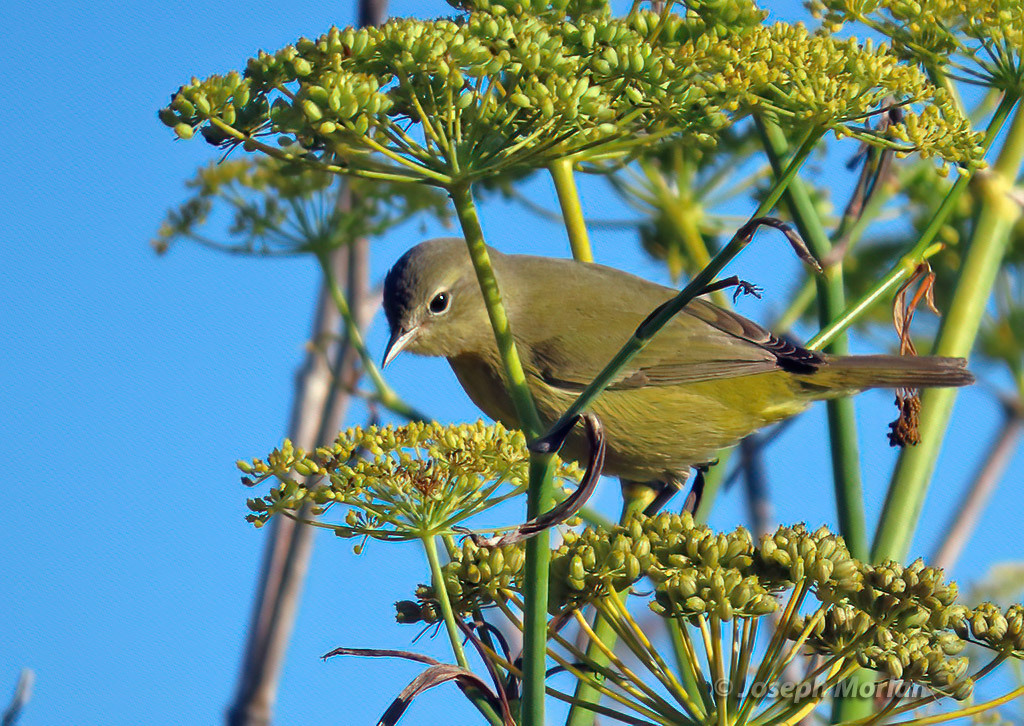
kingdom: Animalia
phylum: Chordata
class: Aves
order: Passeriformes
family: Parulidae
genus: Leiothlypis
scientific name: Leiothlypis celata
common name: Orange-crowned warbler
